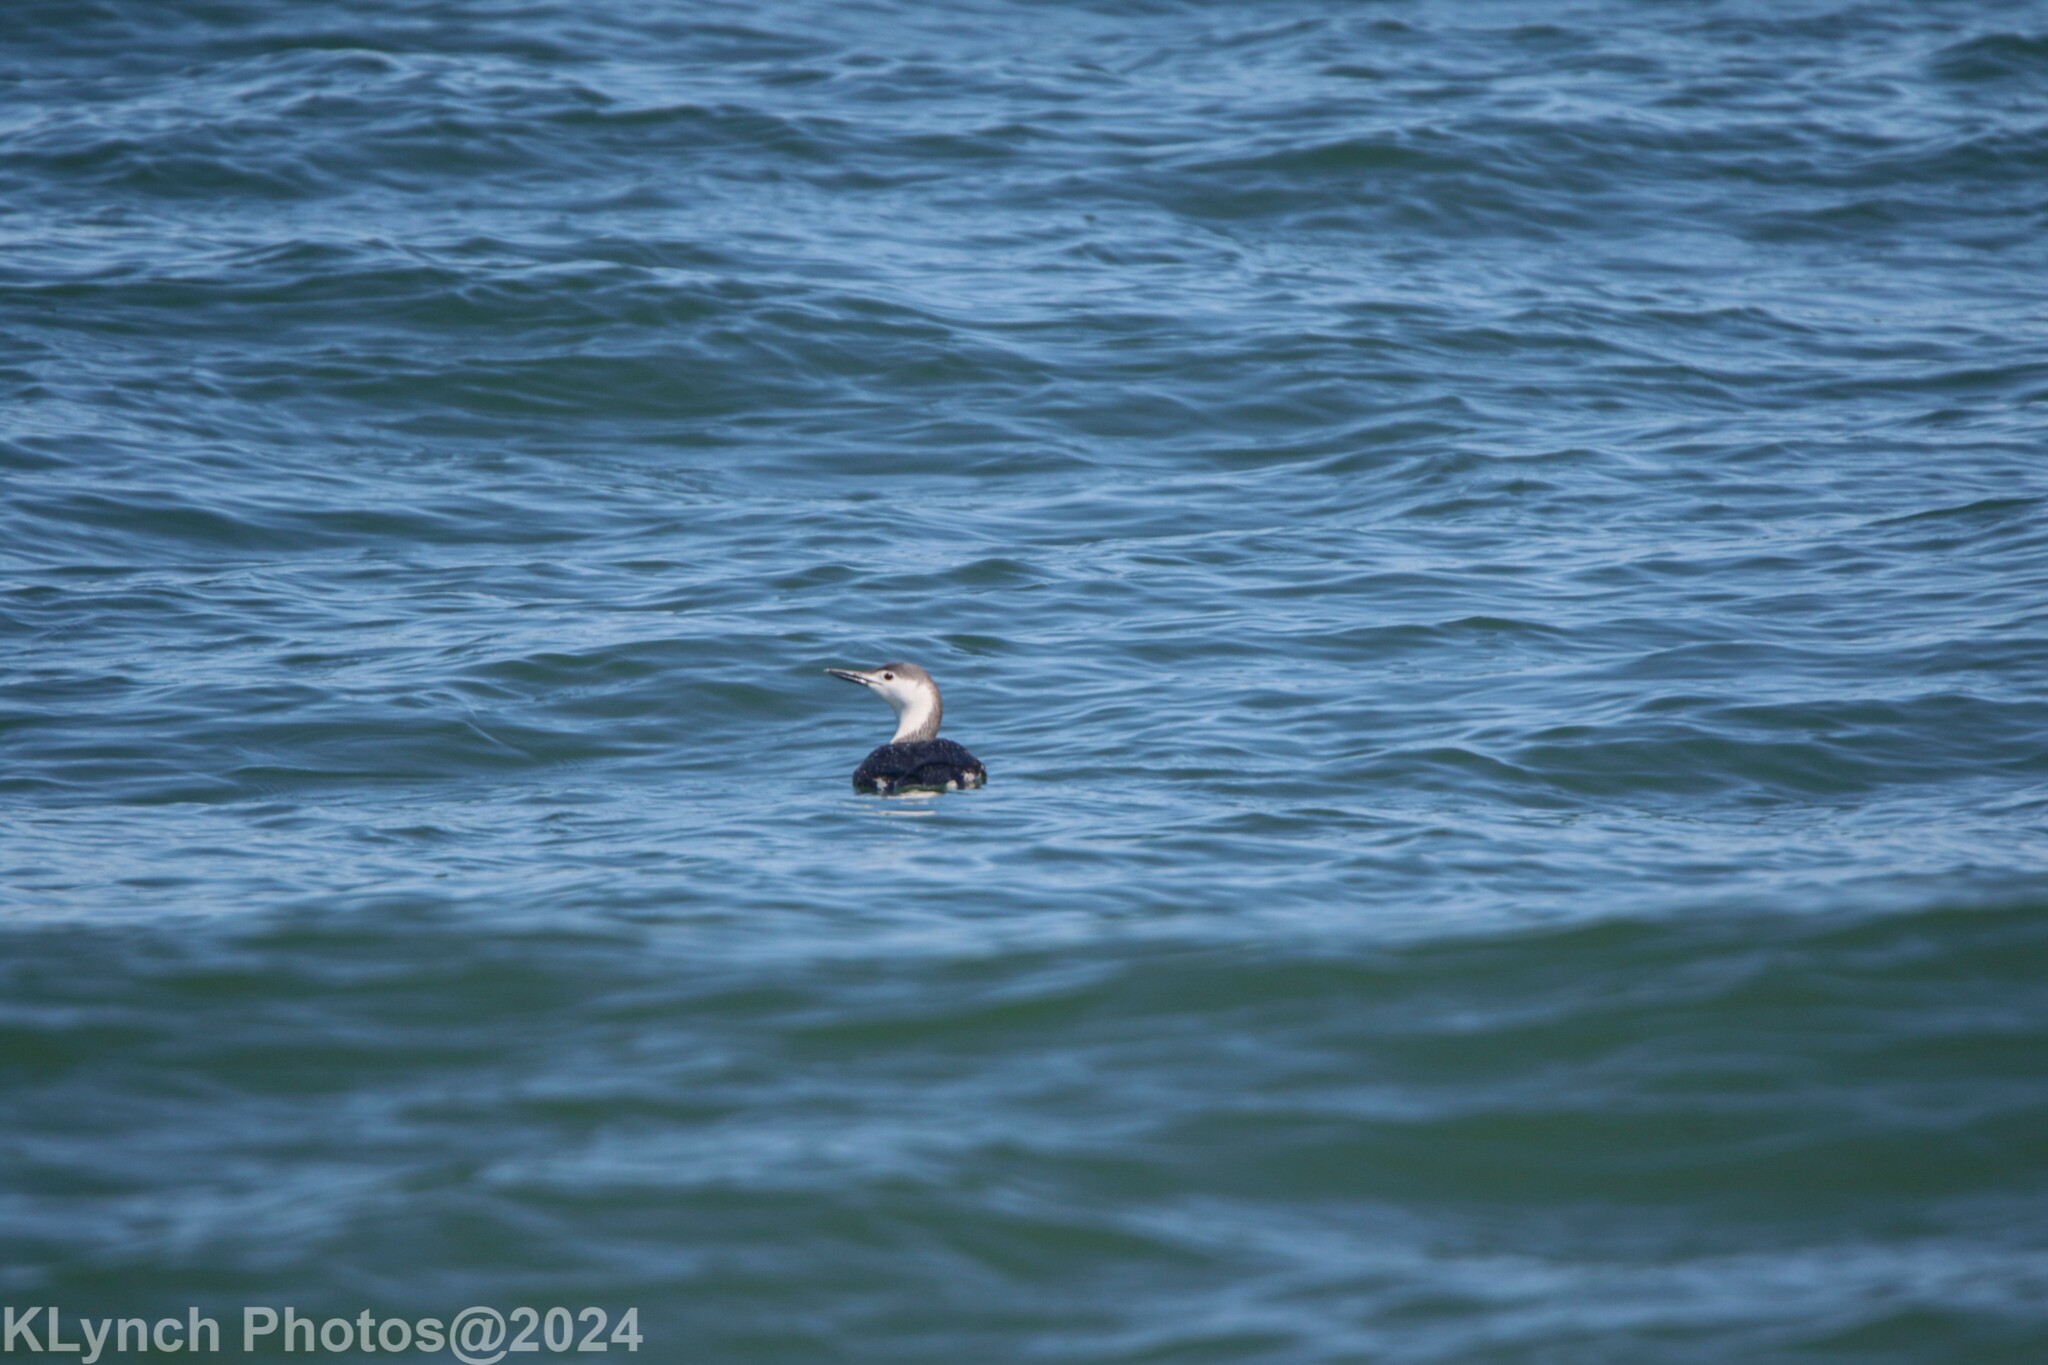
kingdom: Animalia
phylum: Chordata
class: Aves
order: Gaviiformes
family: Gaviidae
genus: Gavia
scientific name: Gavia stellata
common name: Red-throated loon
